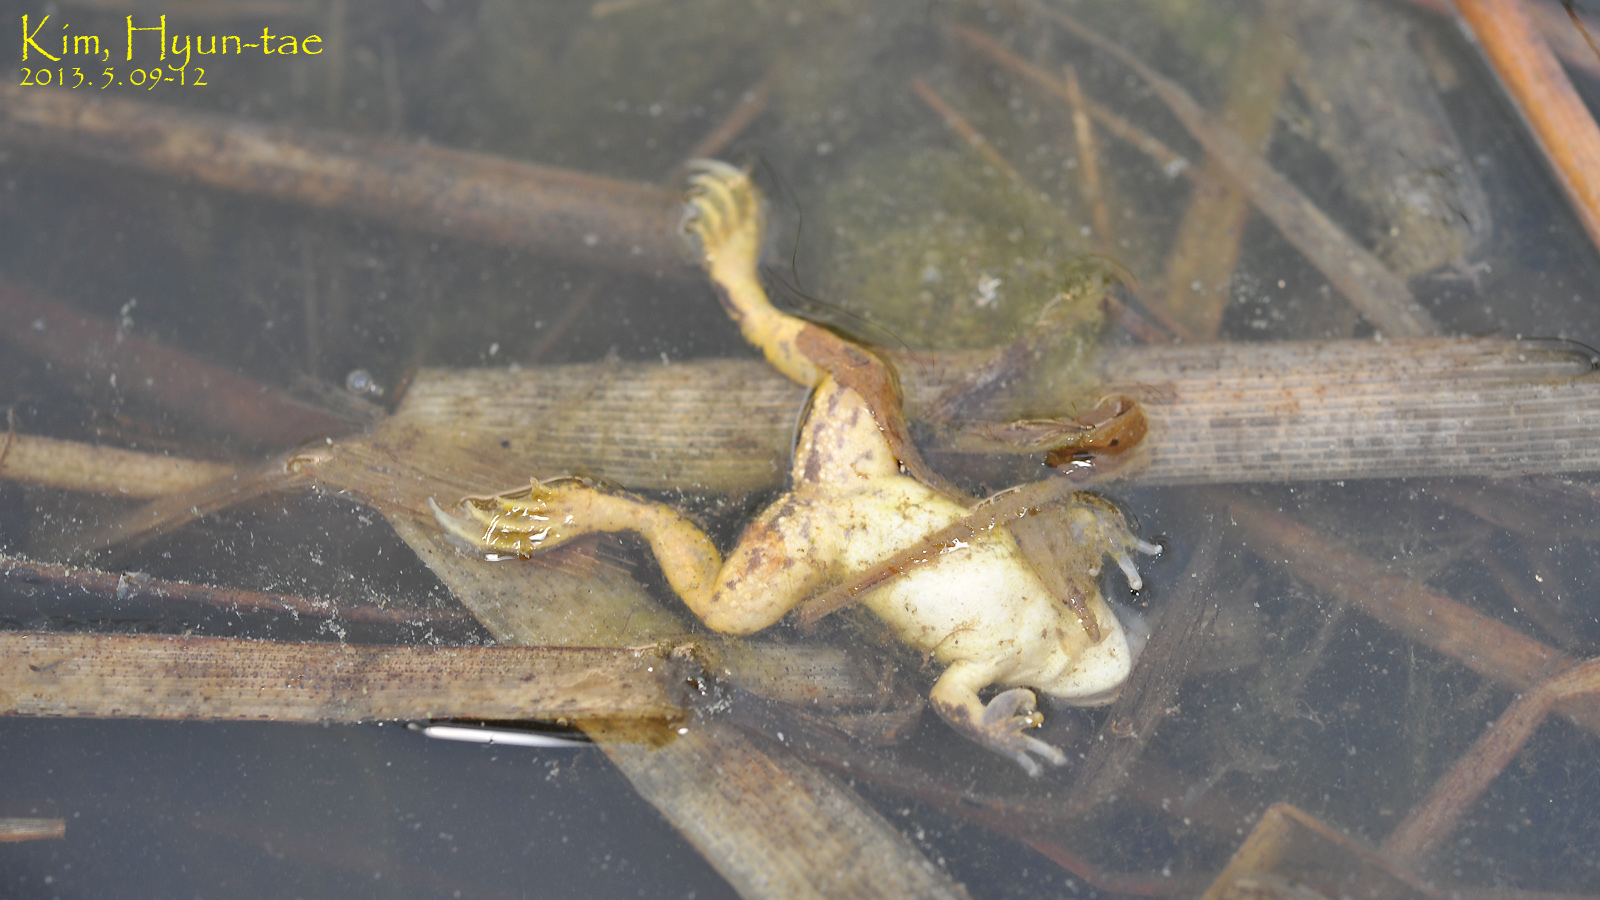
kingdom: Animalia
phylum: Chordata
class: Amphibia
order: Anura
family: Ranidae
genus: Pelophylax
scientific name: Pelophylax chosenicus
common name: Gold-spotted pond frog
